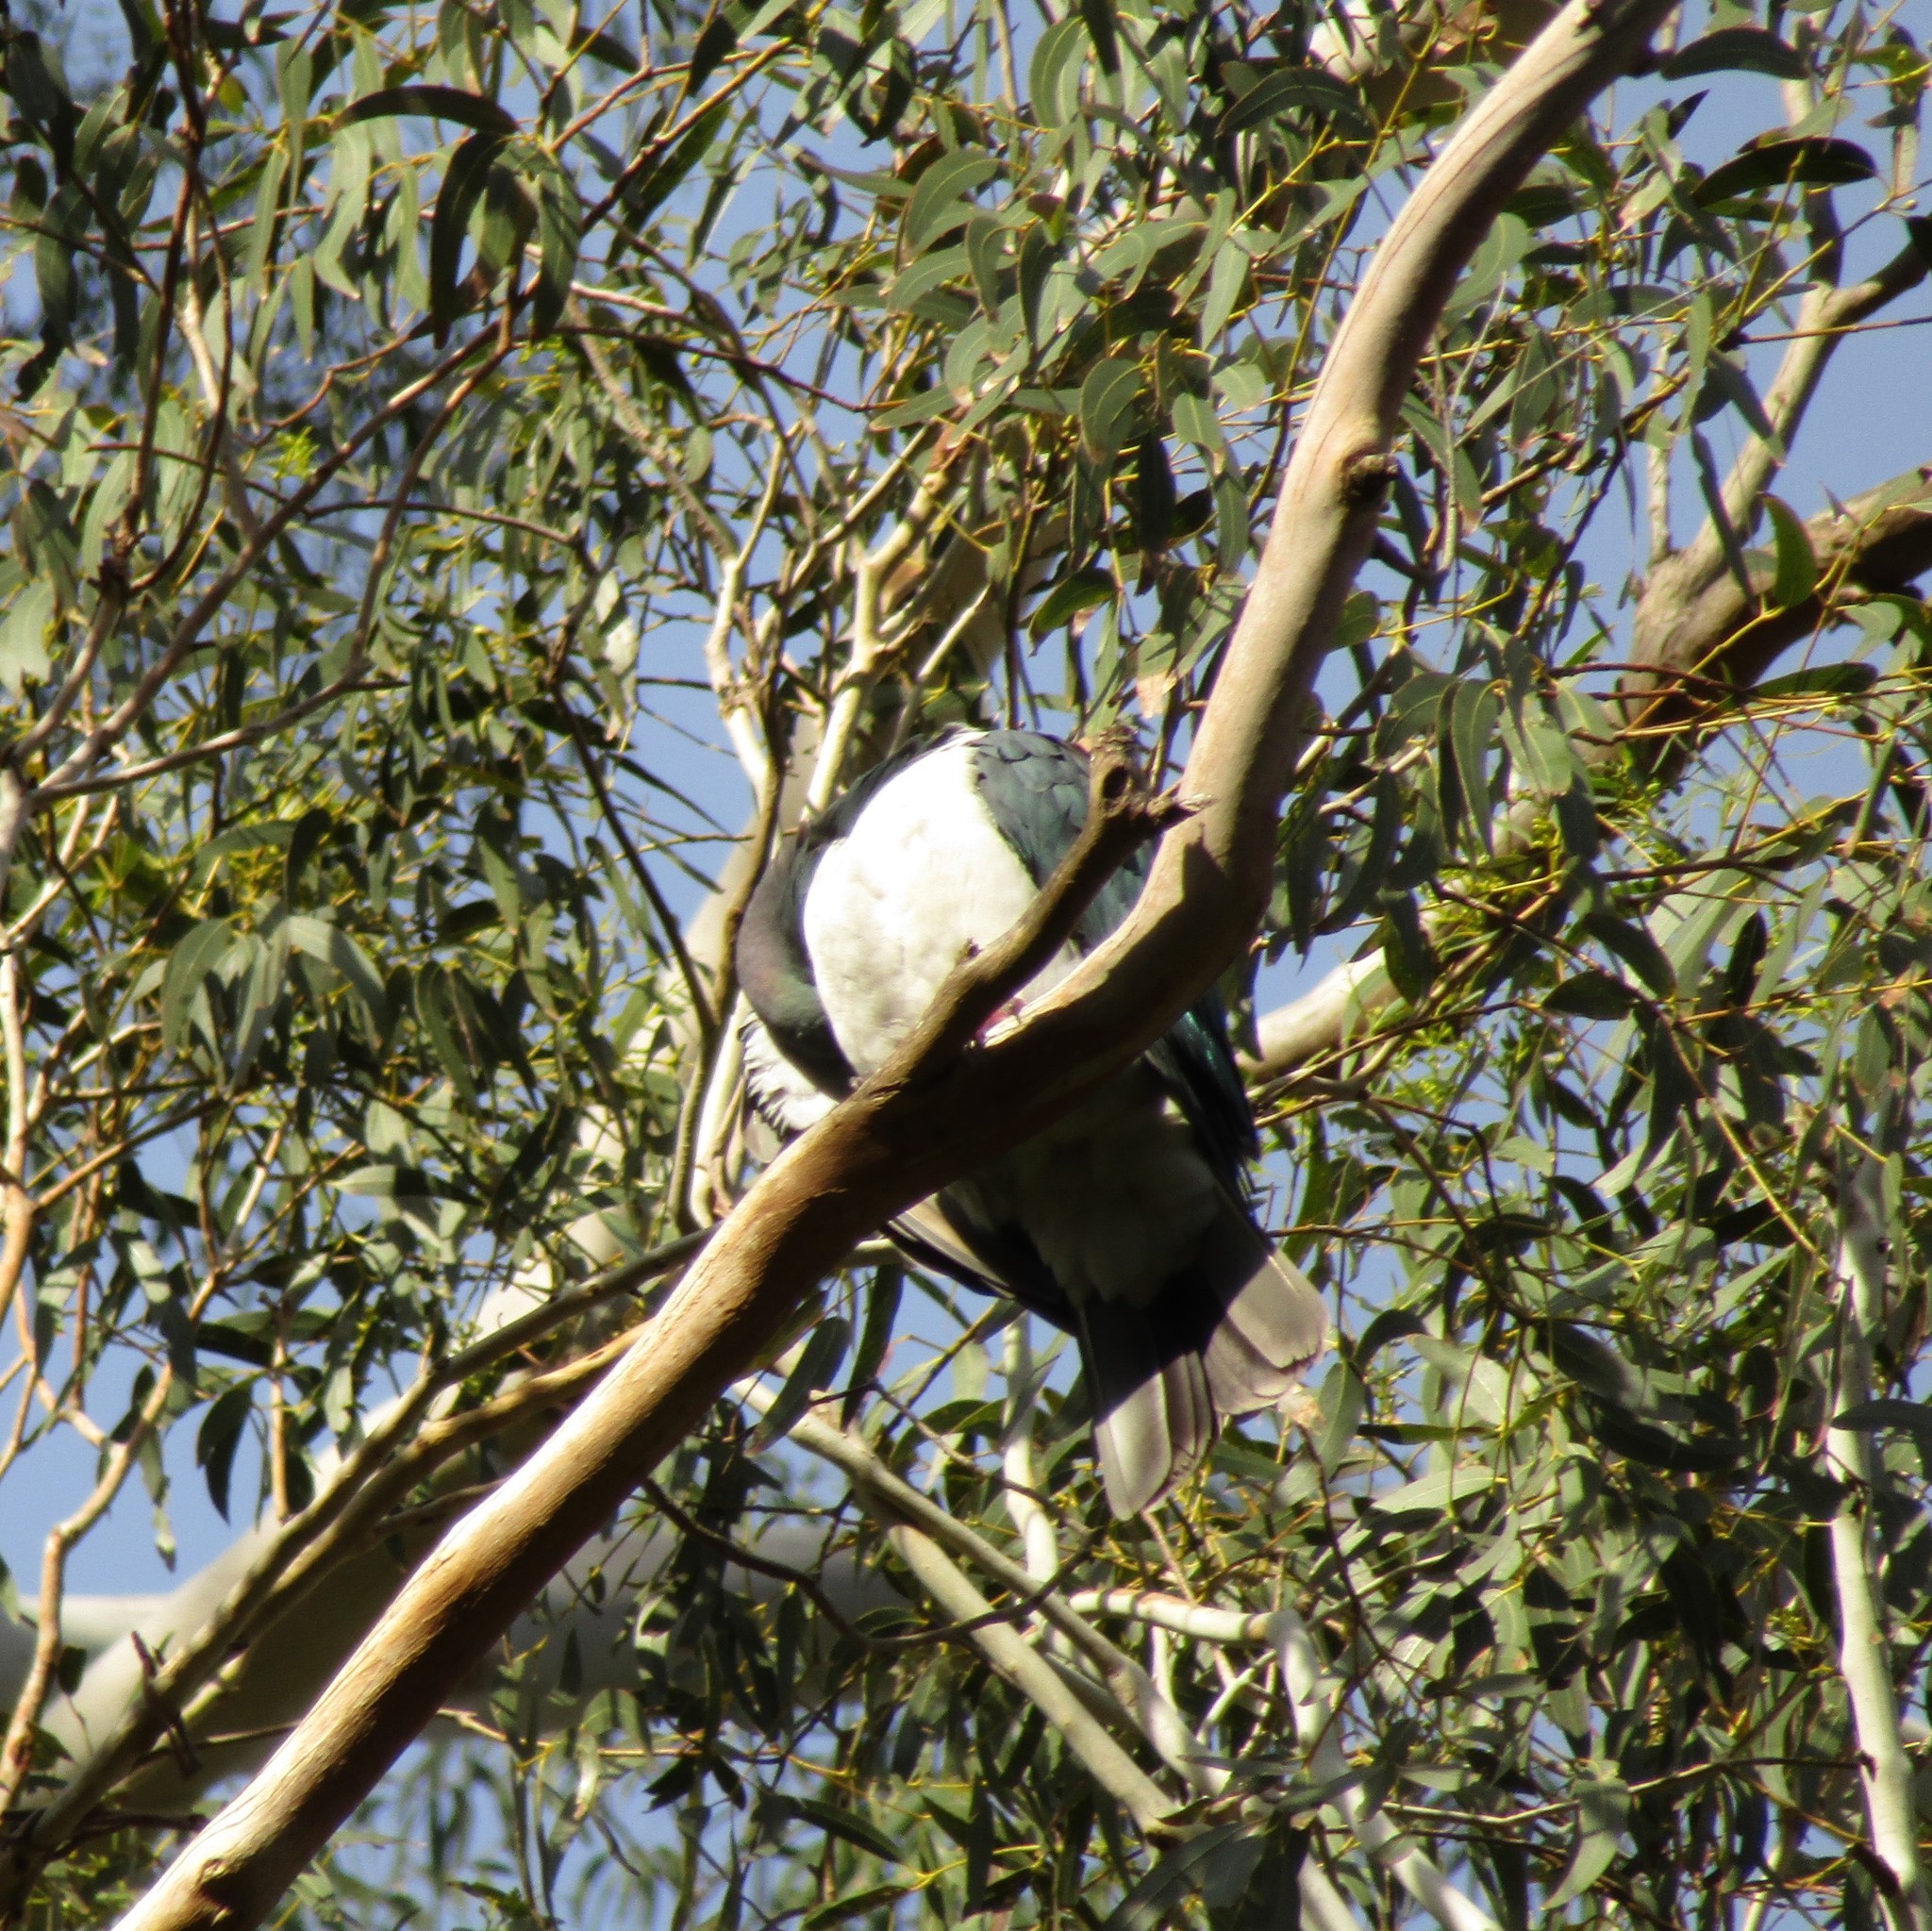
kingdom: Animalia
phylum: Chordata
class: Aves
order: Columbiformes
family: Columbidae
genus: Hemiphaga
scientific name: Hemiphaga novaeseelandiae
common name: New zealand pigeon
